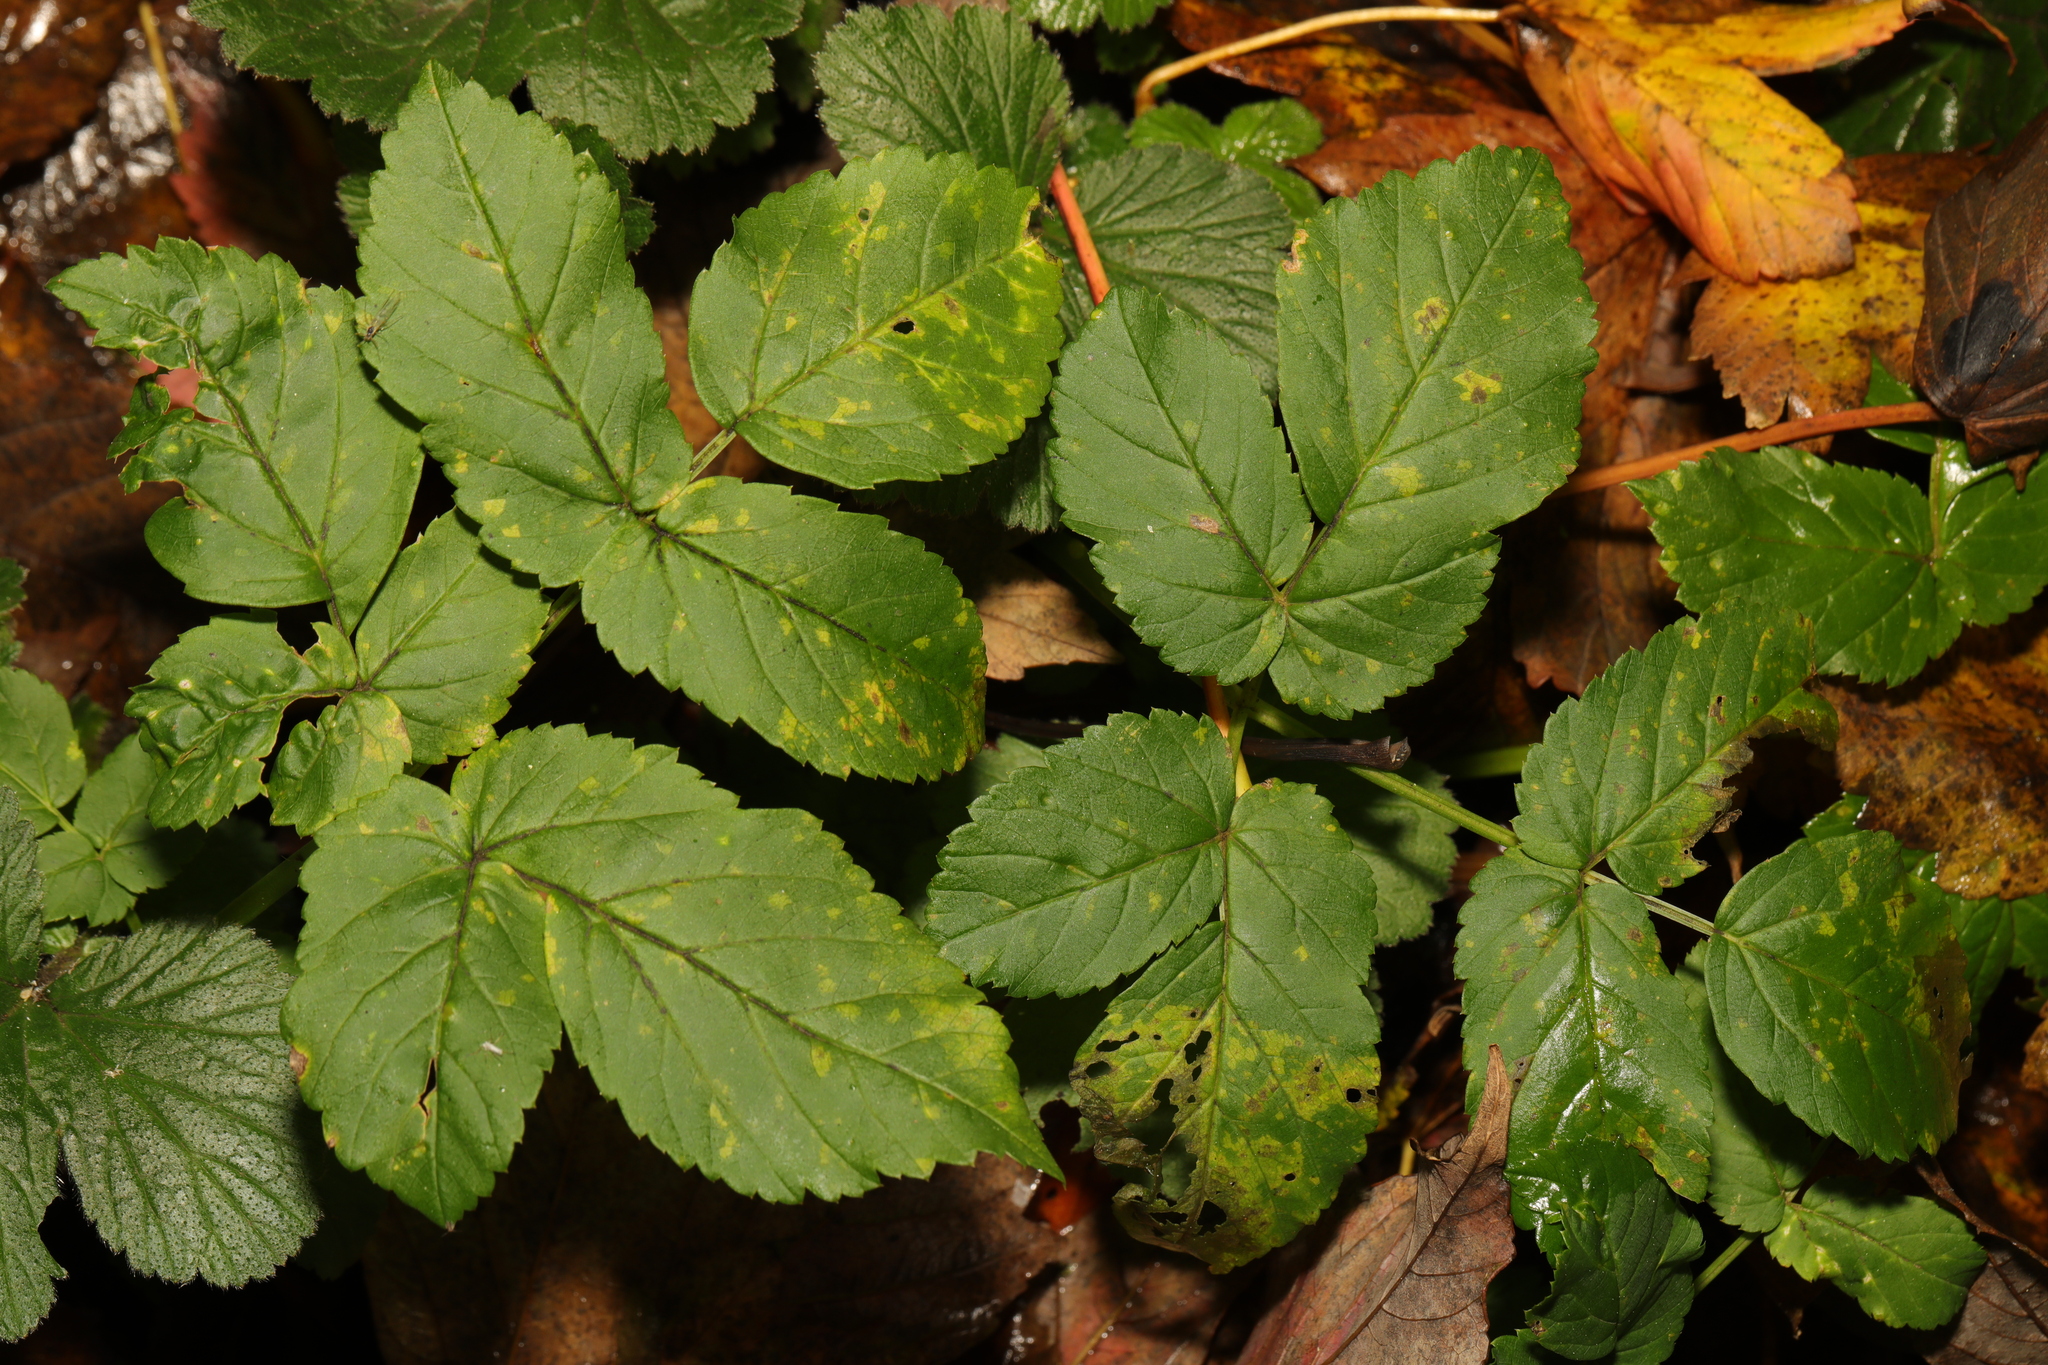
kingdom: Plantae
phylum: Tracheophyta
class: Magnoliopsida
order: Apiales
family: Apiaceae
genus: Aegopodium
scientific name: Aegopodium podagraria
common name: Ground-elder
